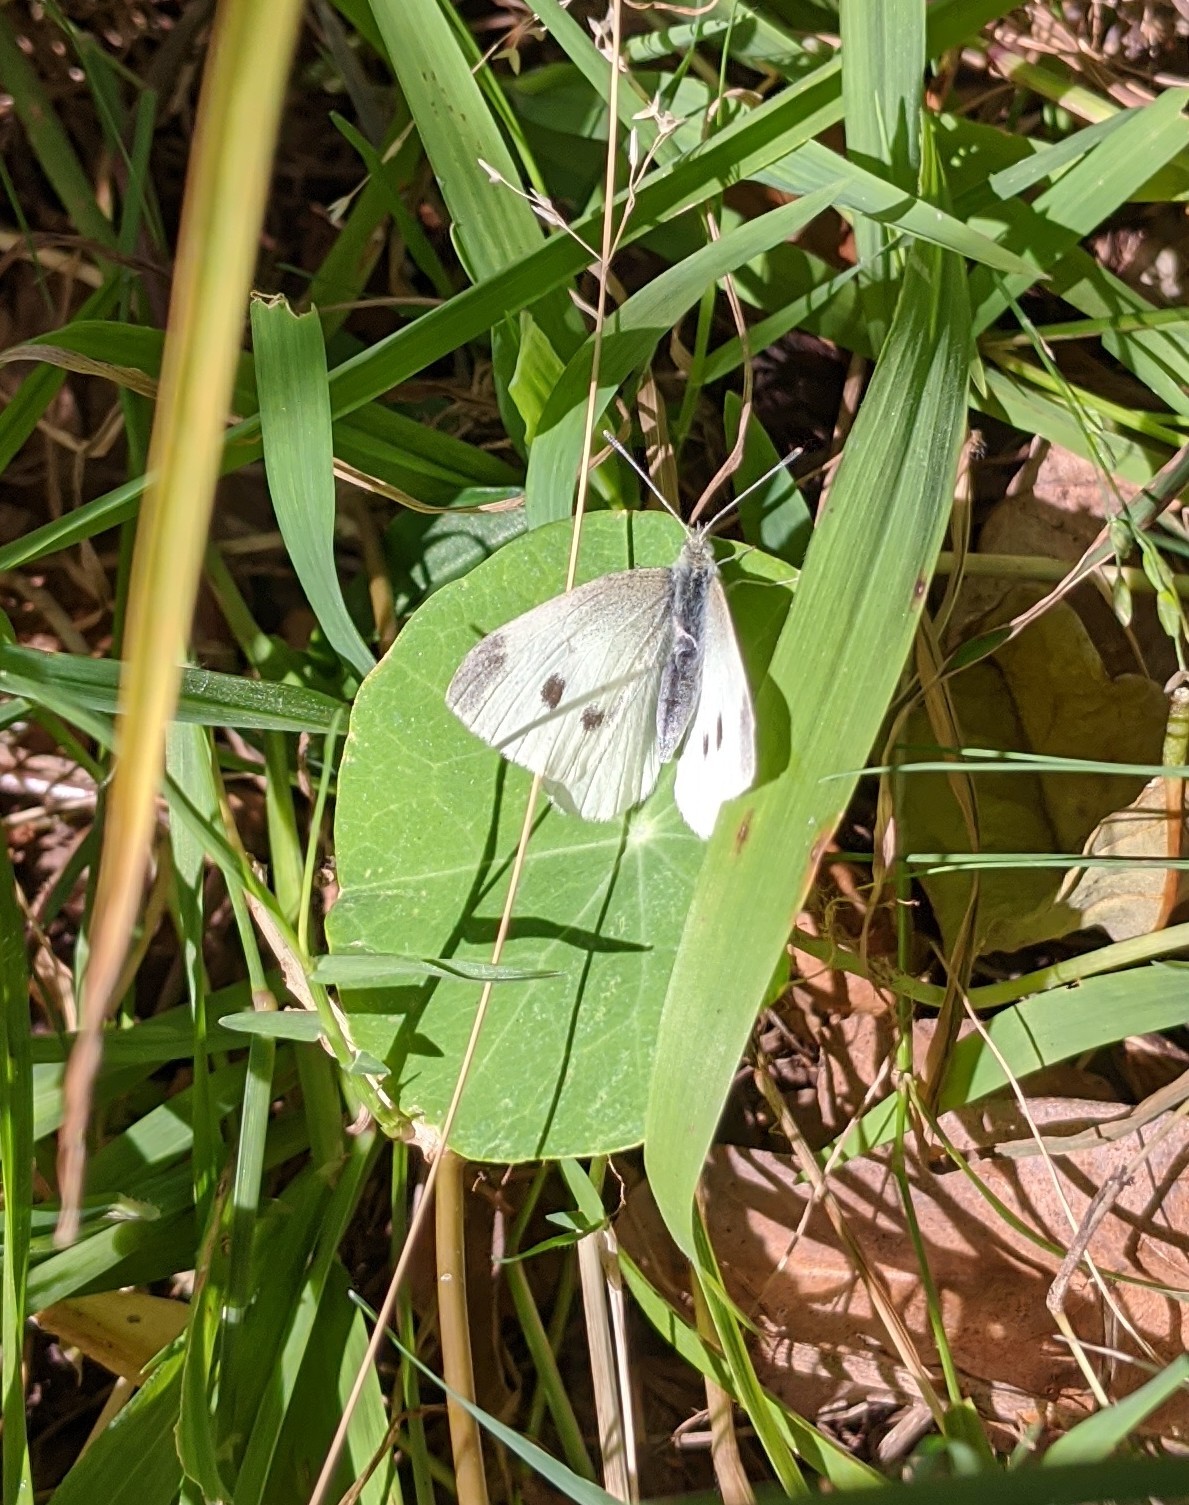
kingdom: Animalia
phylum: Arthropoda
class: Insecta
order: Lepidoptera
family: Pieridae
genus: Pieris
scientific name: Pieris rapae
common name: Small white
